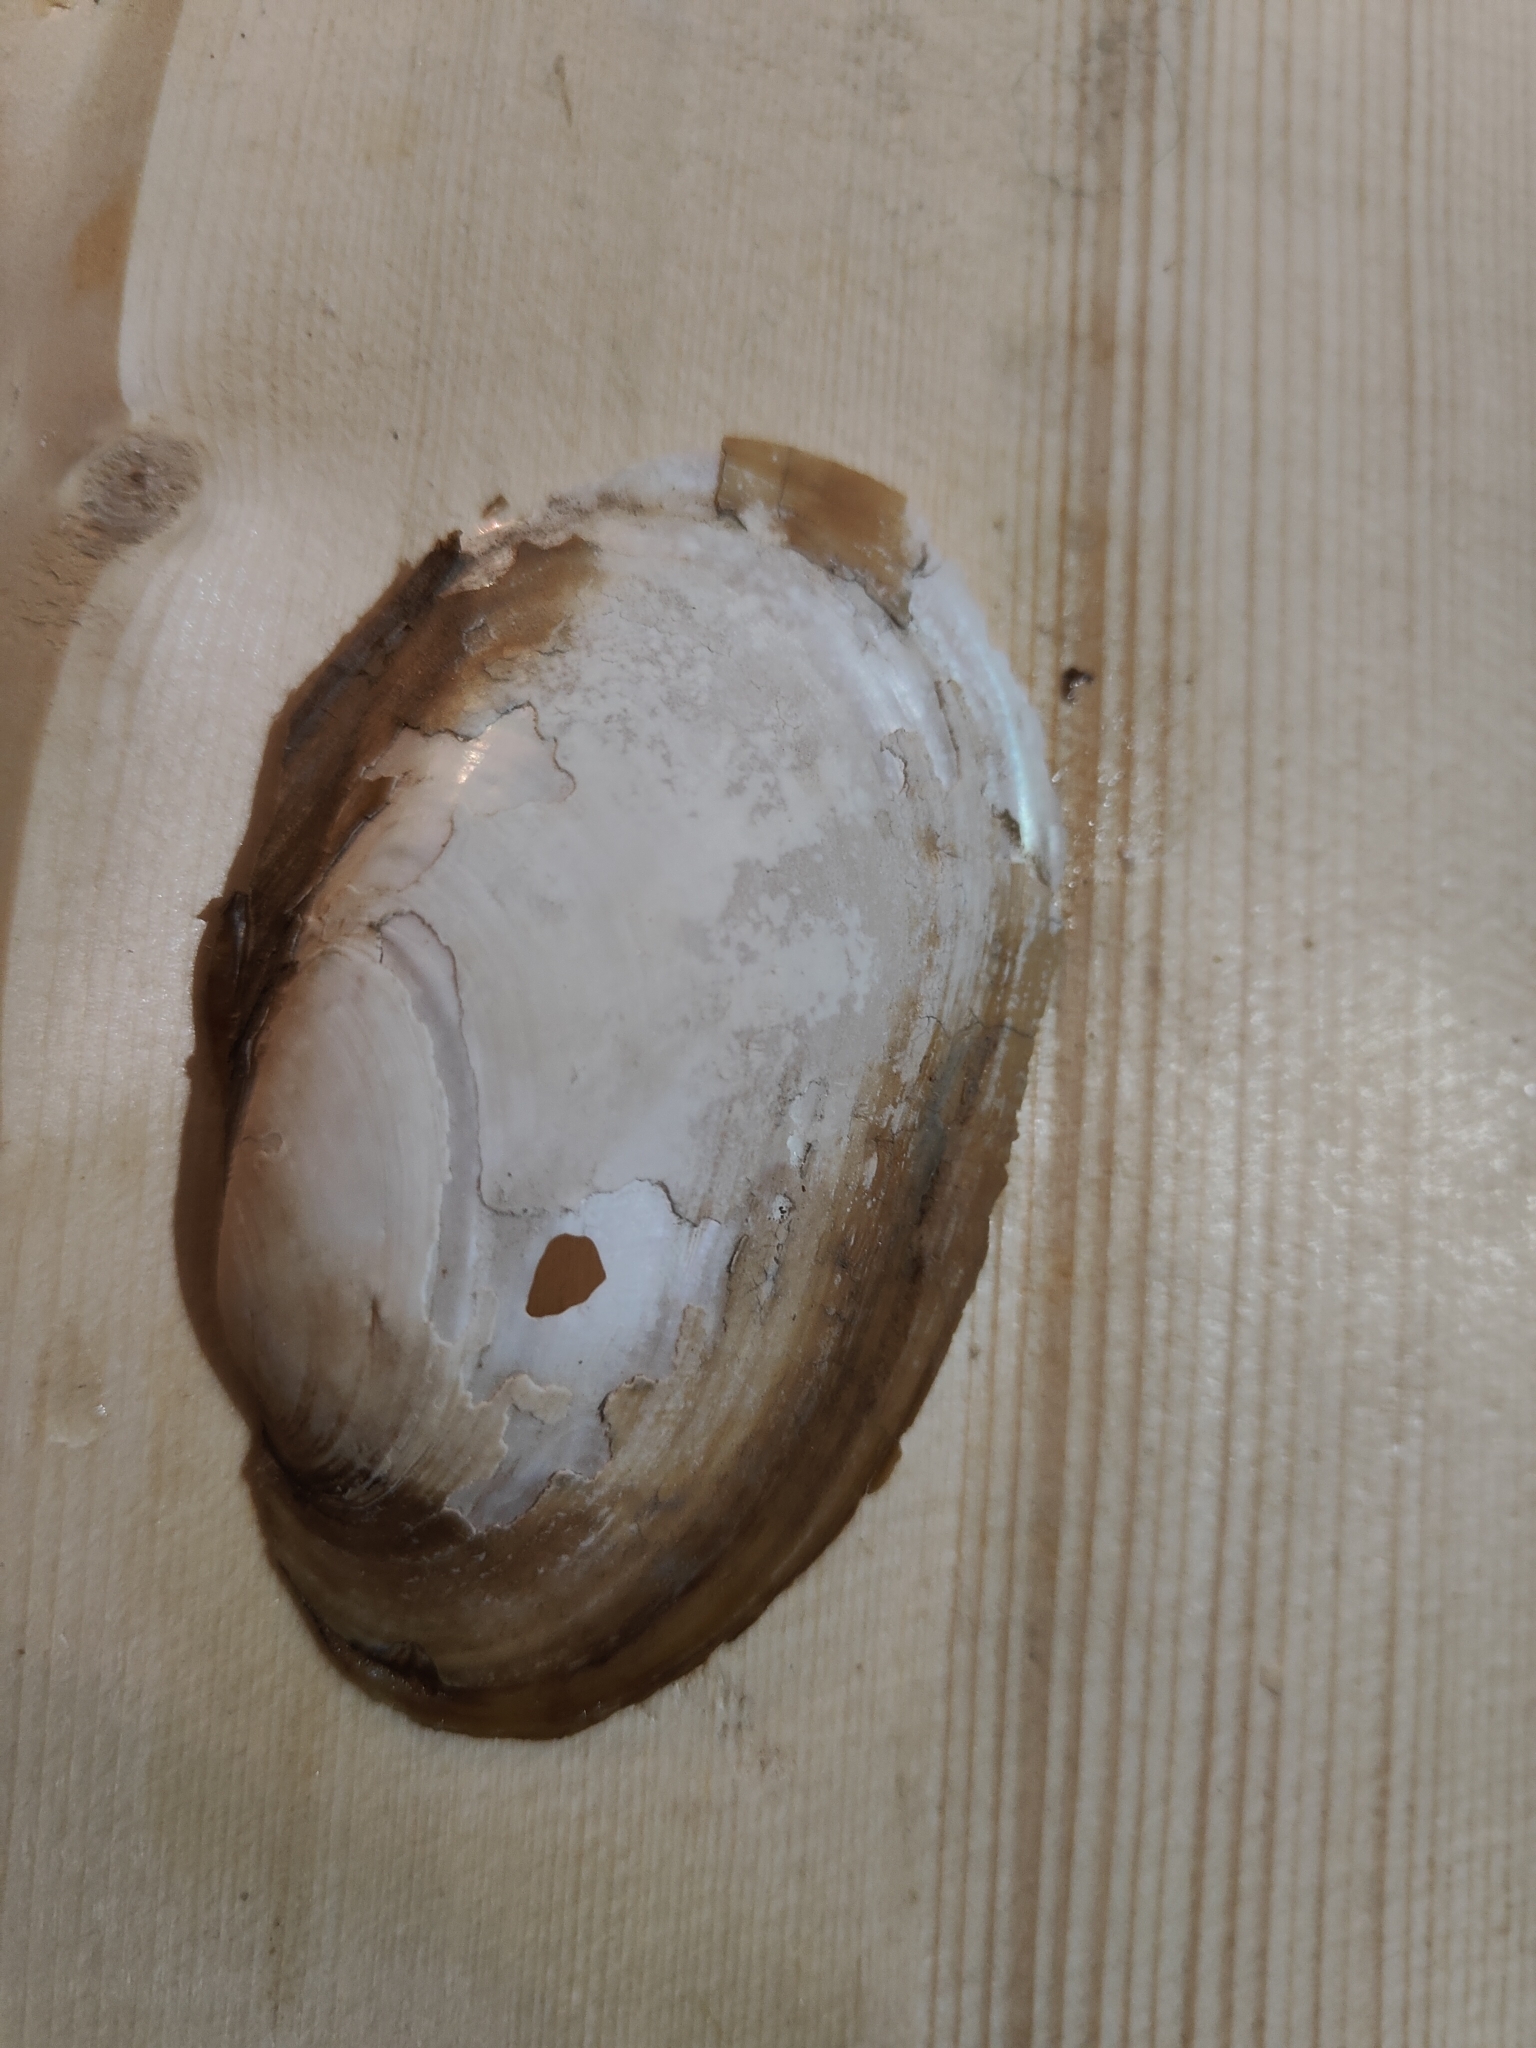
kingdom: Animalia
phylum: Mollusca
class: Bivalvia
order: Unionida
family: Unionidae
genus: Potamilus
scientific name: Potamilus fragilis
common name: Fragile papershell
